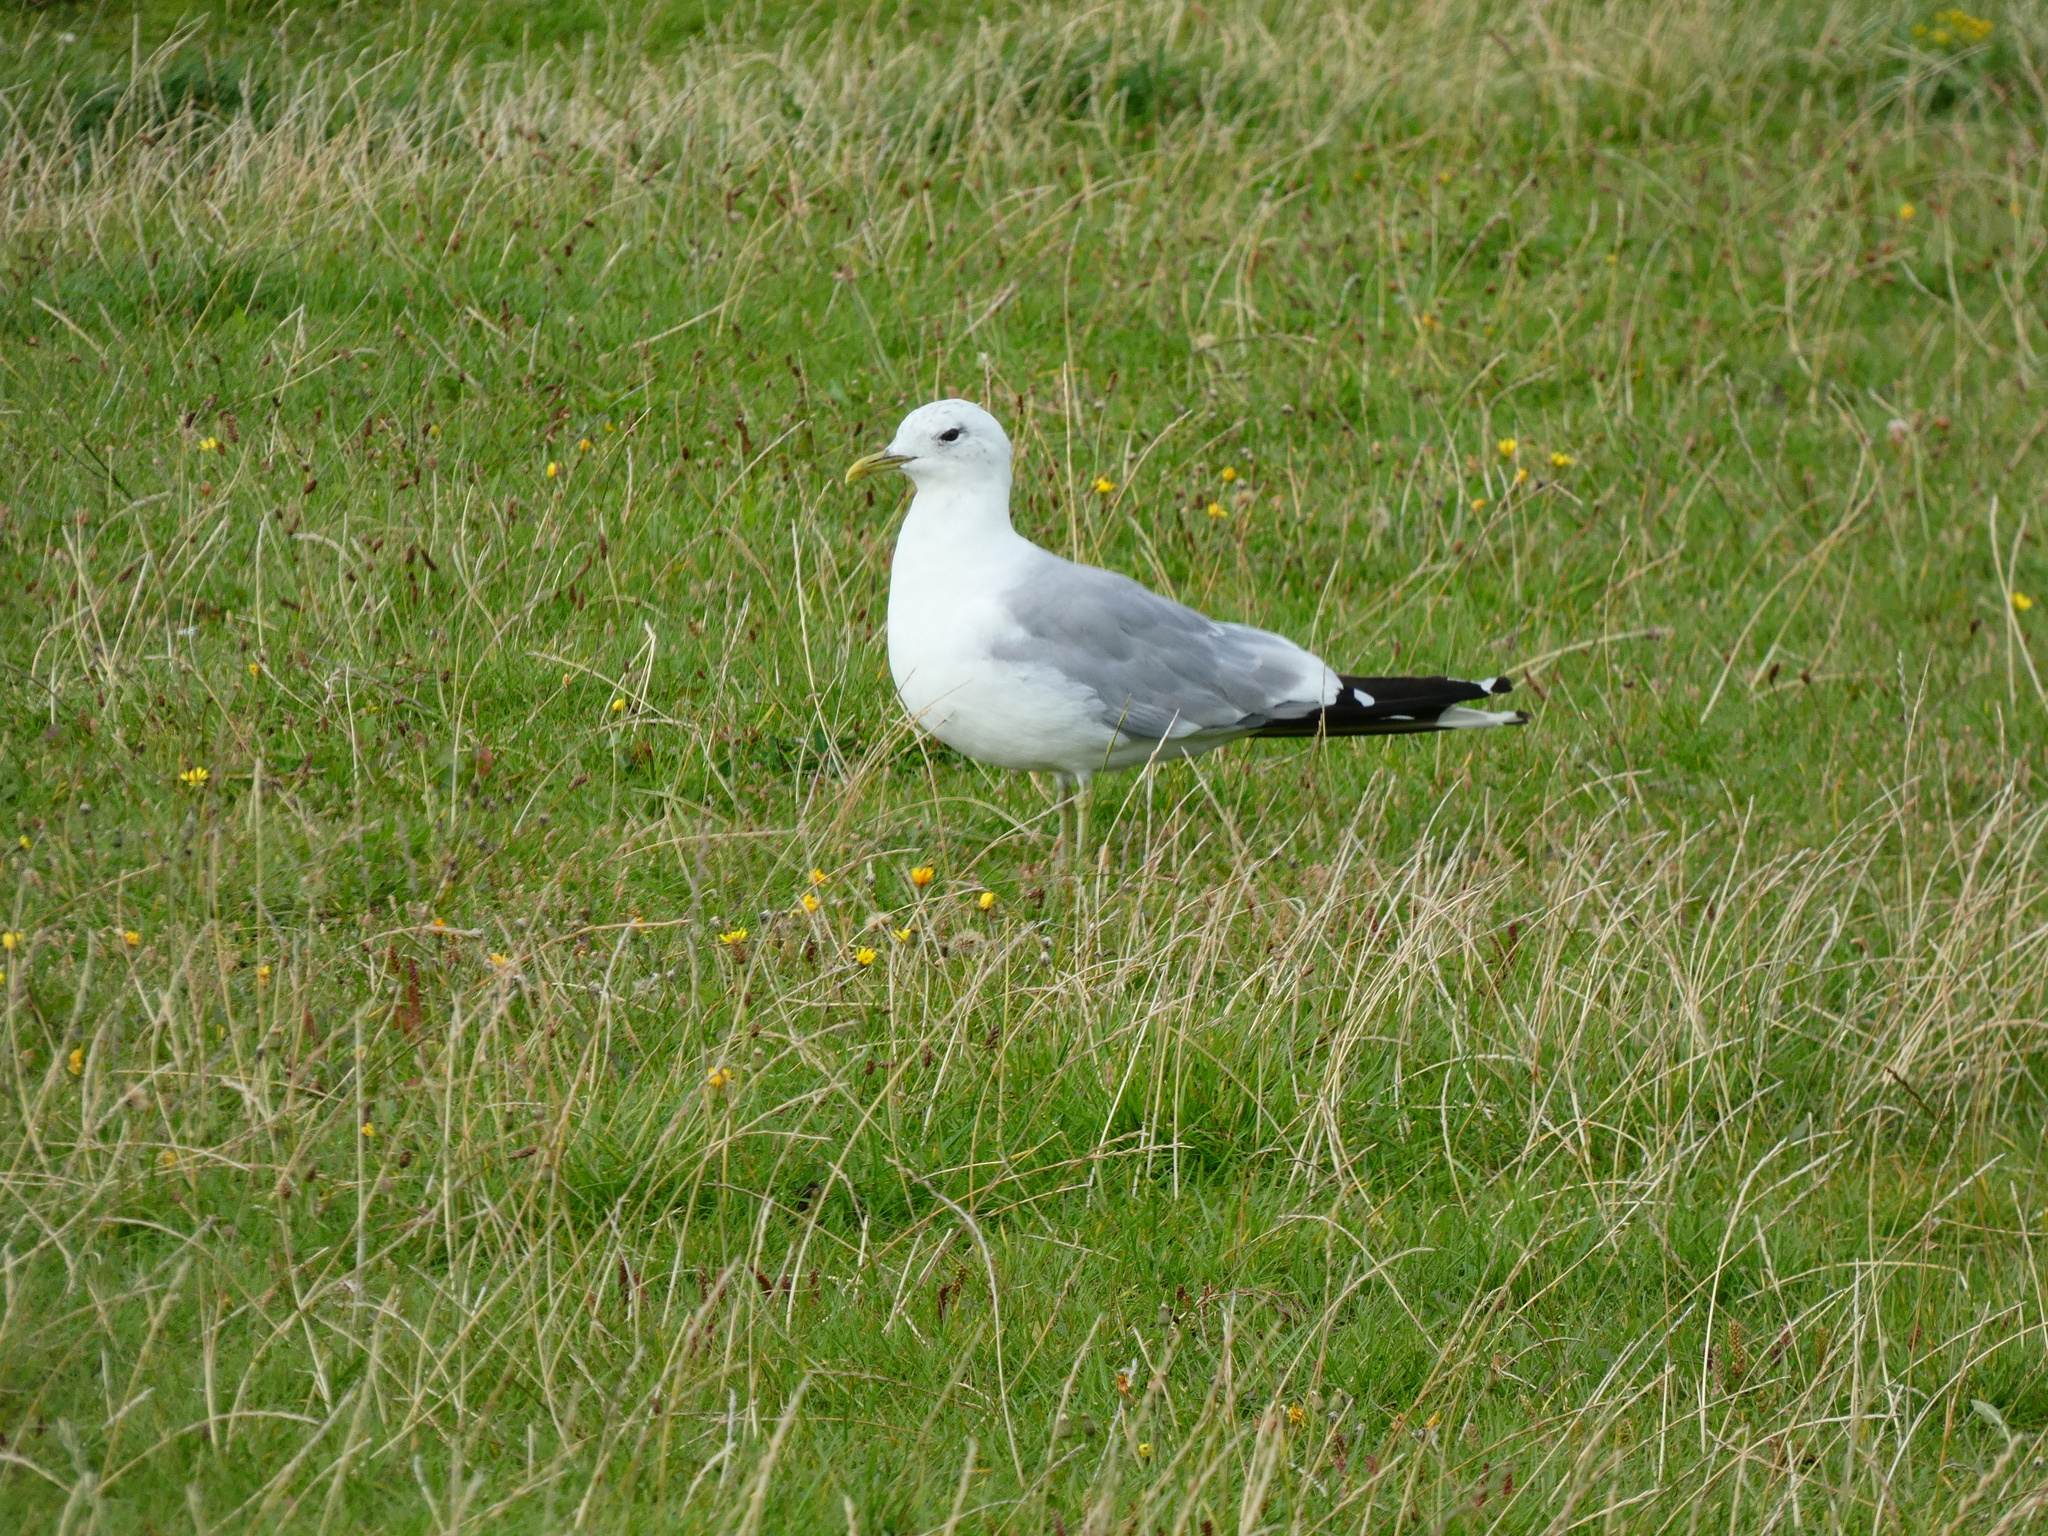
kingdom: Animalia
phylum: Chordata
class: Aves
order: Charadriiformes
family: Laridae
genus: Larus
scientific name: Larus canus
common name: Mew gull
